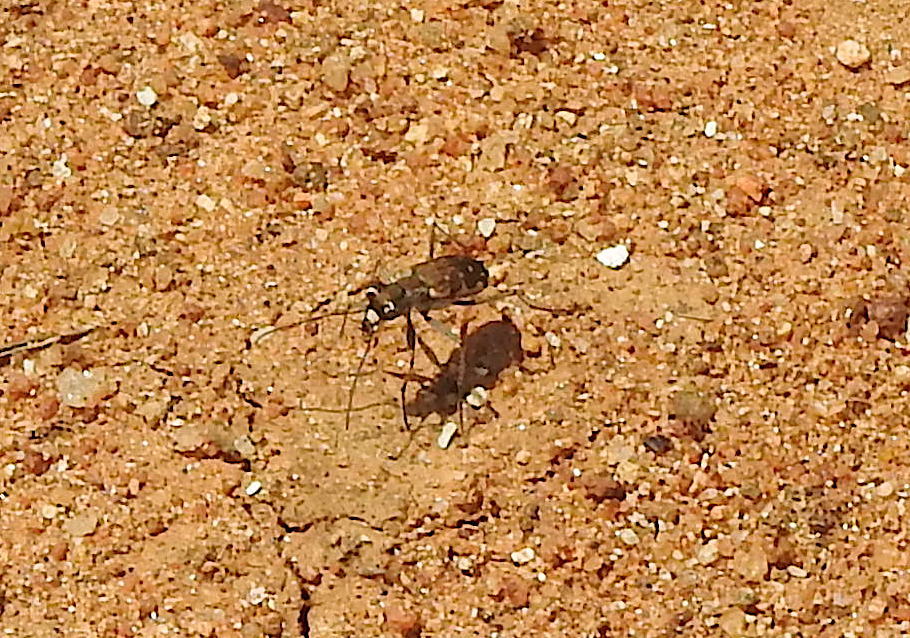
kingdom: Animalia
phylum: Arthropoda
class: Insecta
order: Coleoptera
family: Carabidae
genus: Myriochila
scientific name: Myriochila fastidiosa
